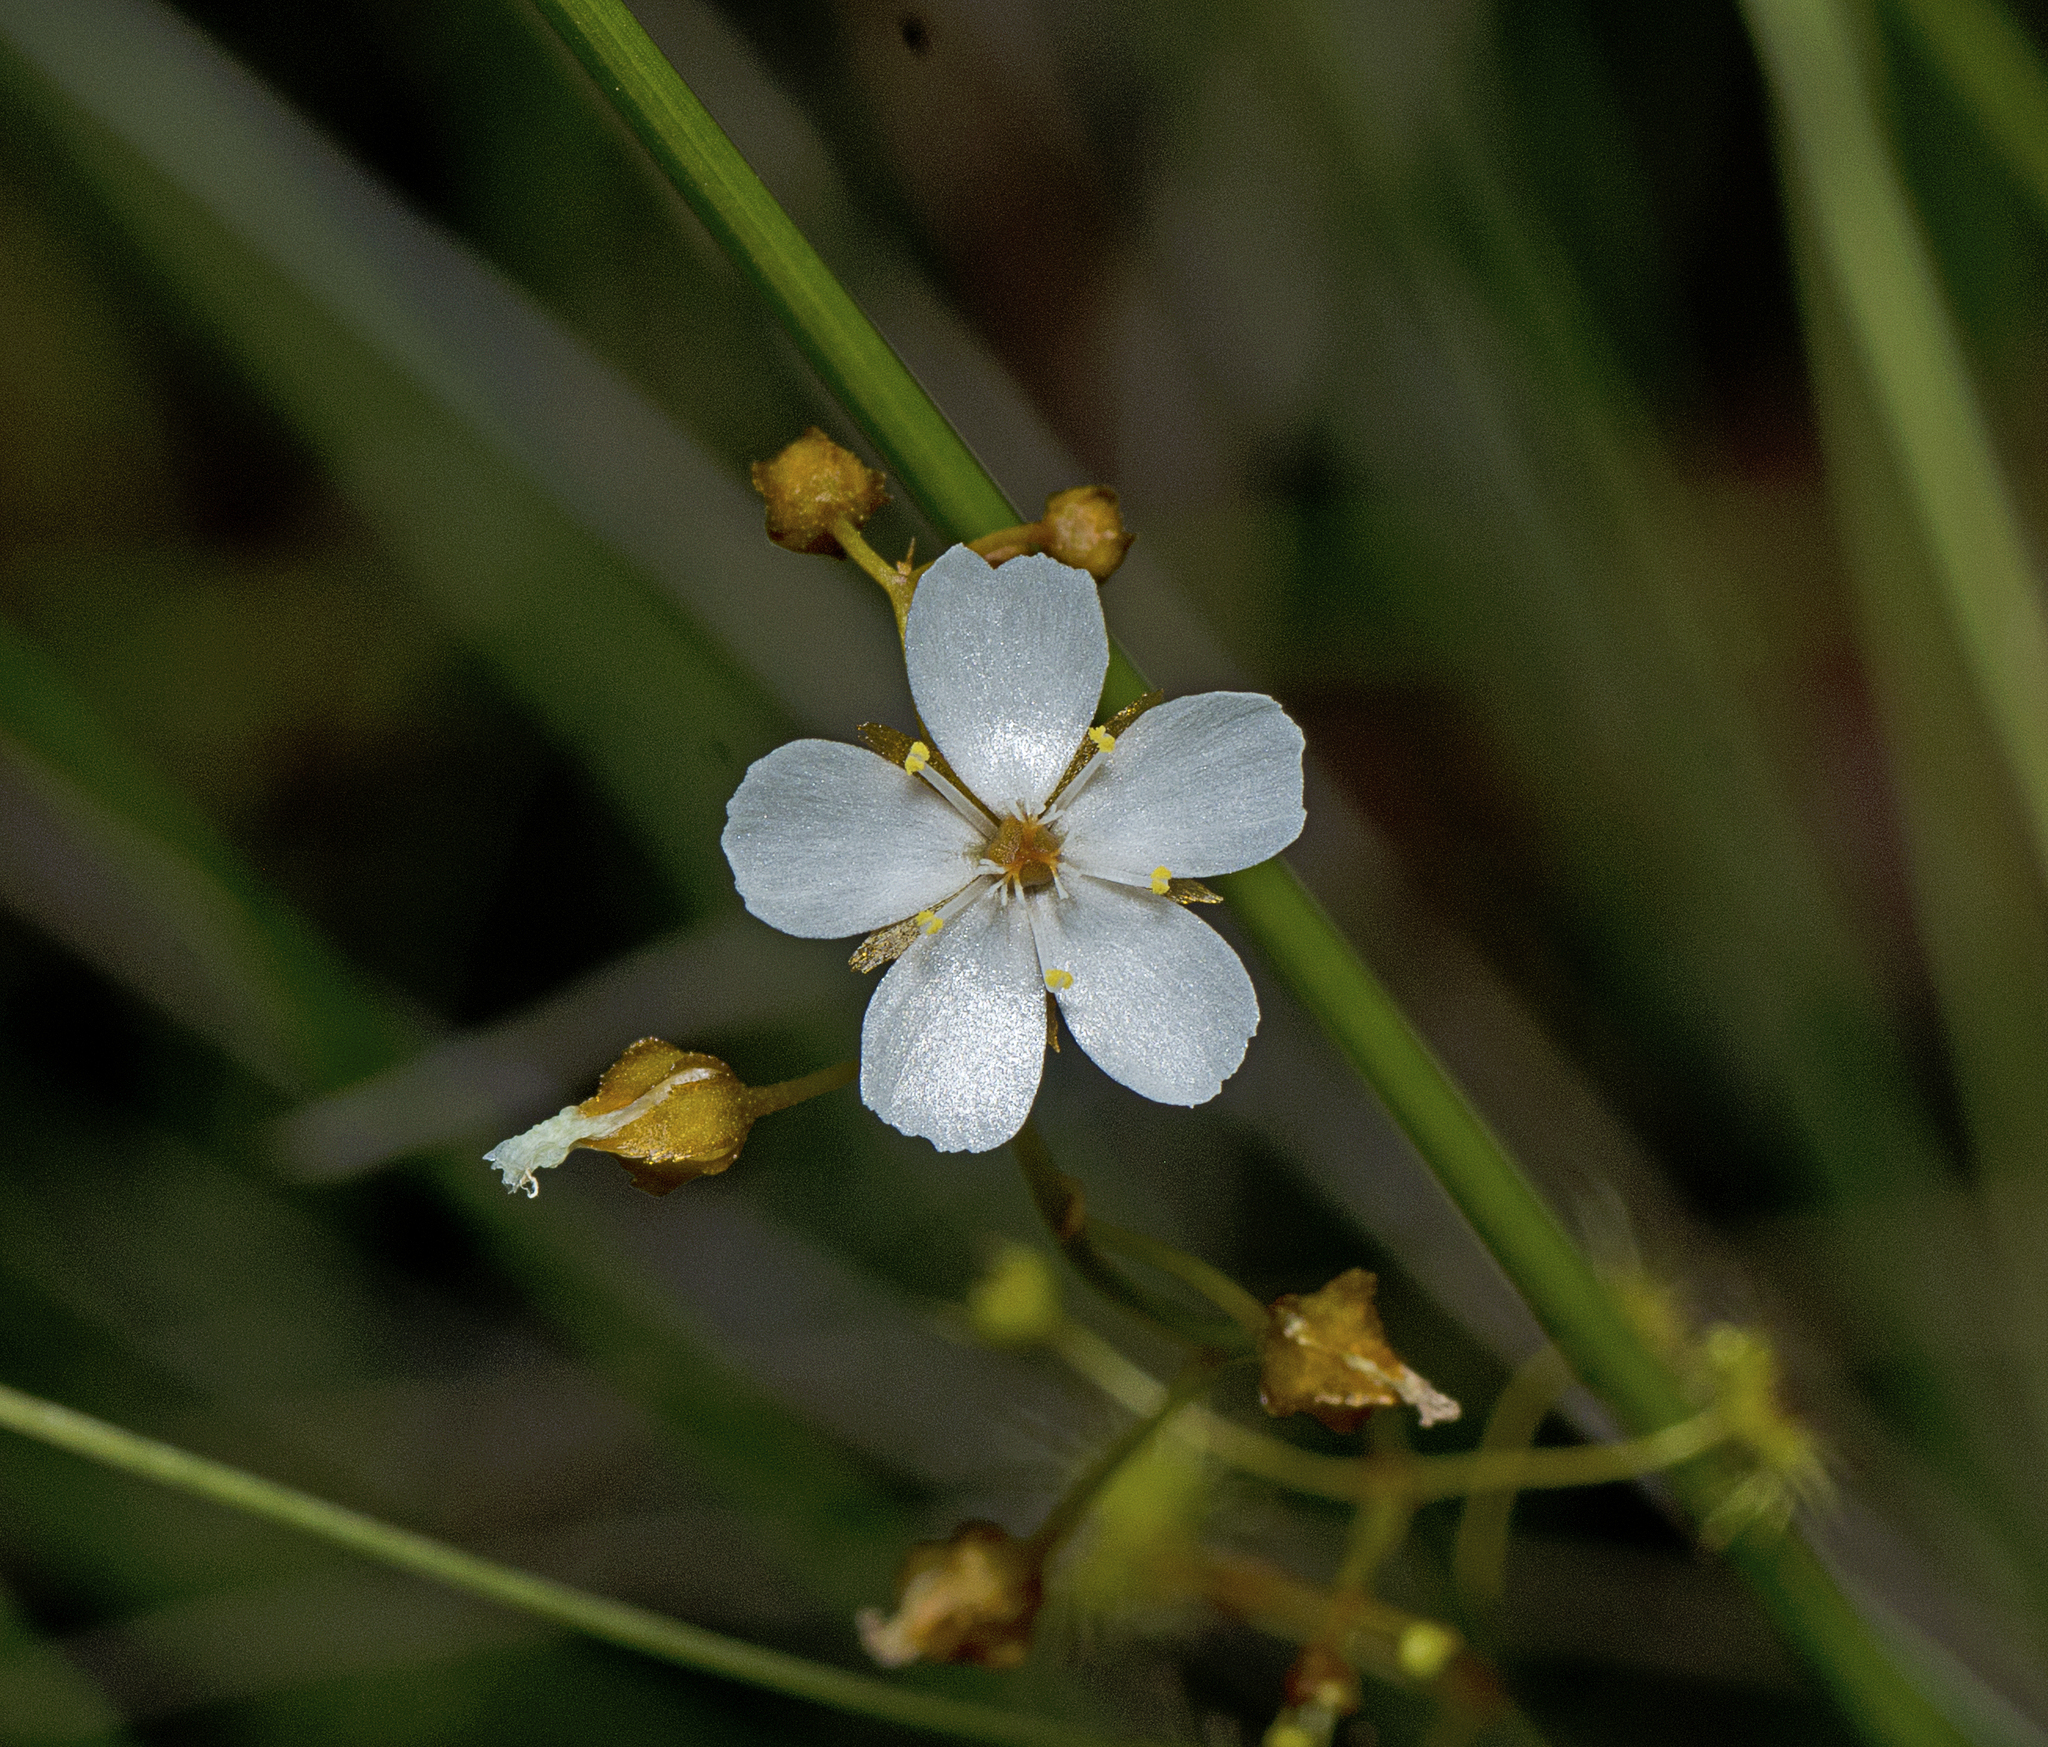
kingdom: Plantae
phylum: Tracheophyta
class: Magnoliopsida
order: Caryophyllales
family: Droseraceae
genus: Drosera
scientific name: Drosera peltata
